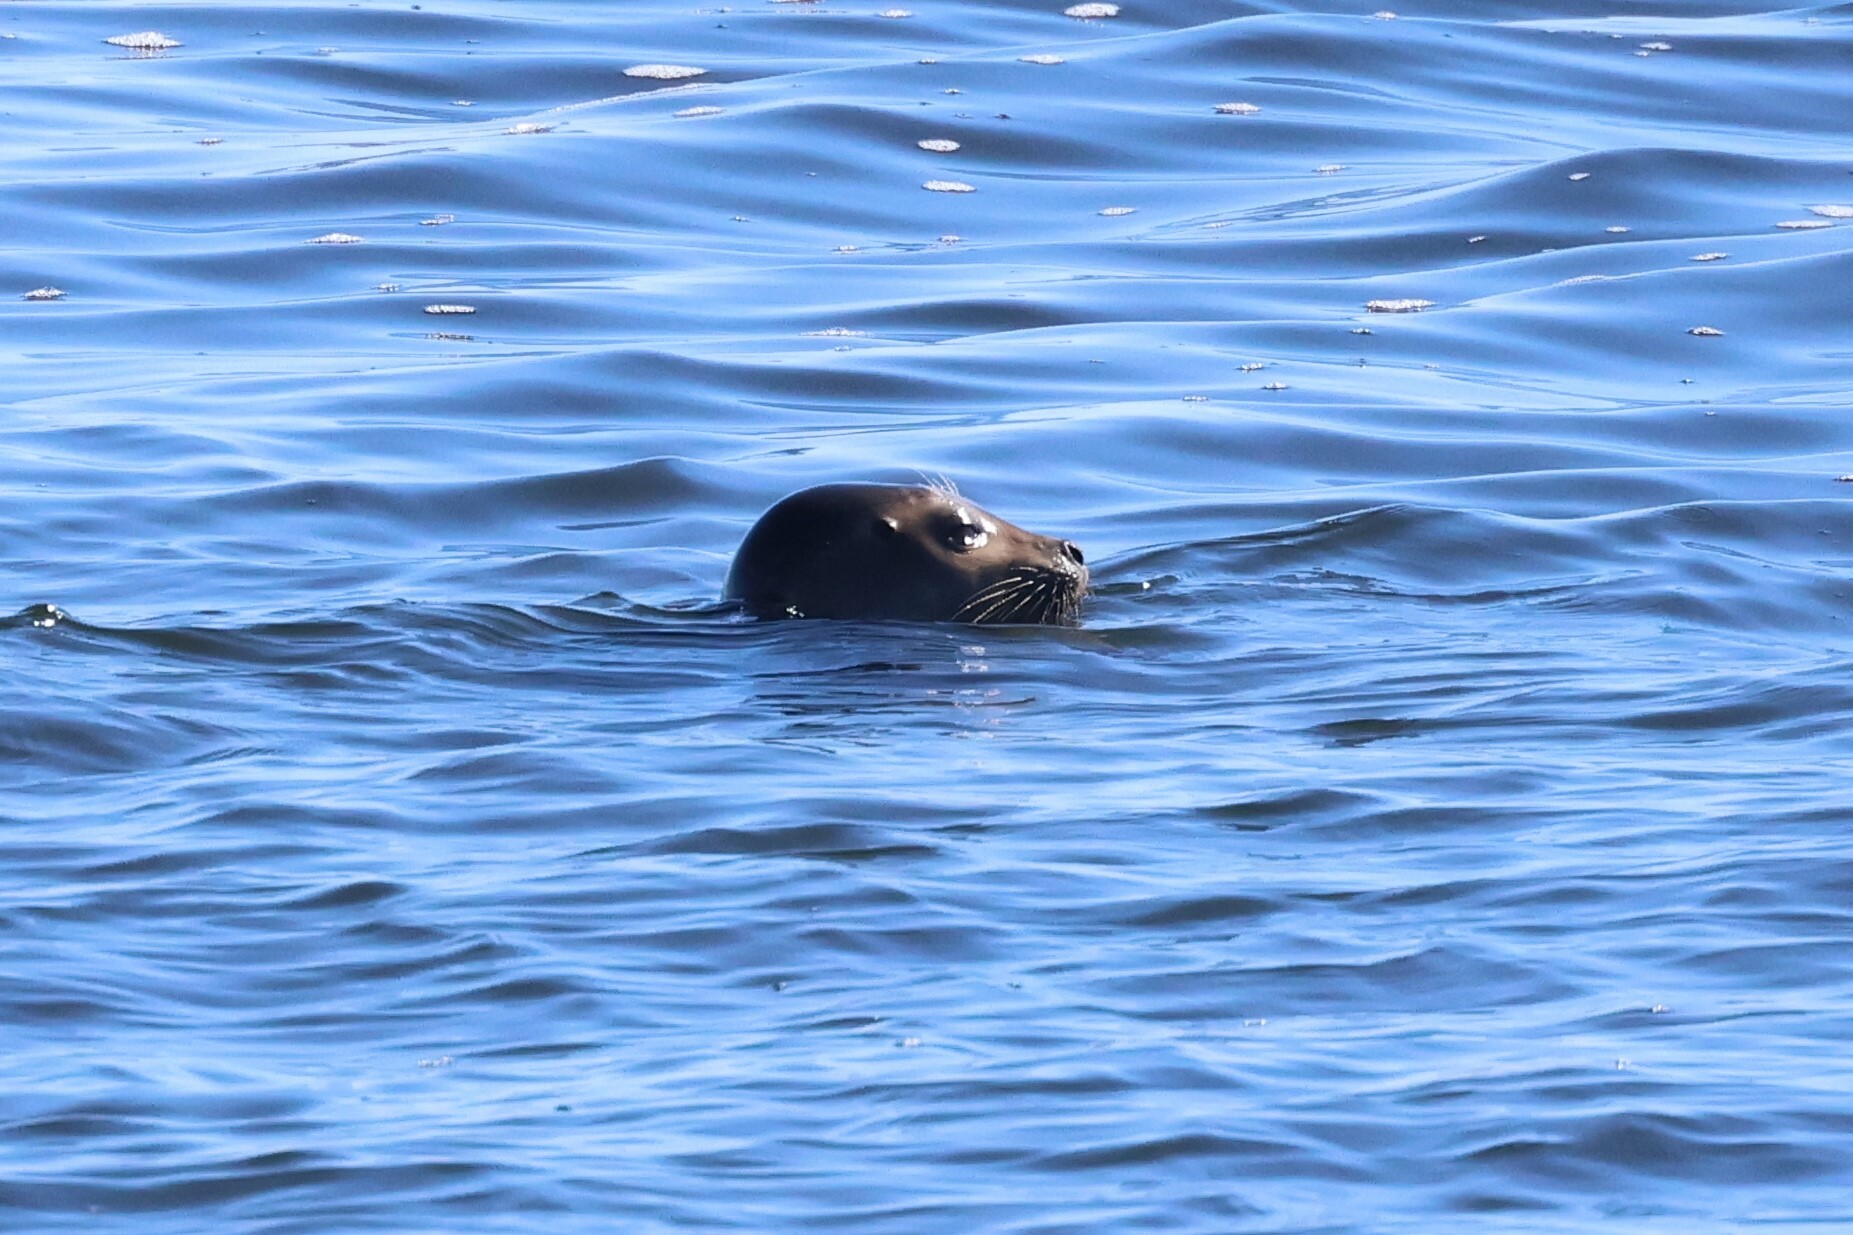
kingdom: Animalia
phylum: Chordata
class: Mammalia
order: Carnivora
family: Phocidae
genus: Phoca
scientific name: Phoca vitulina
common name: Harbor seal
